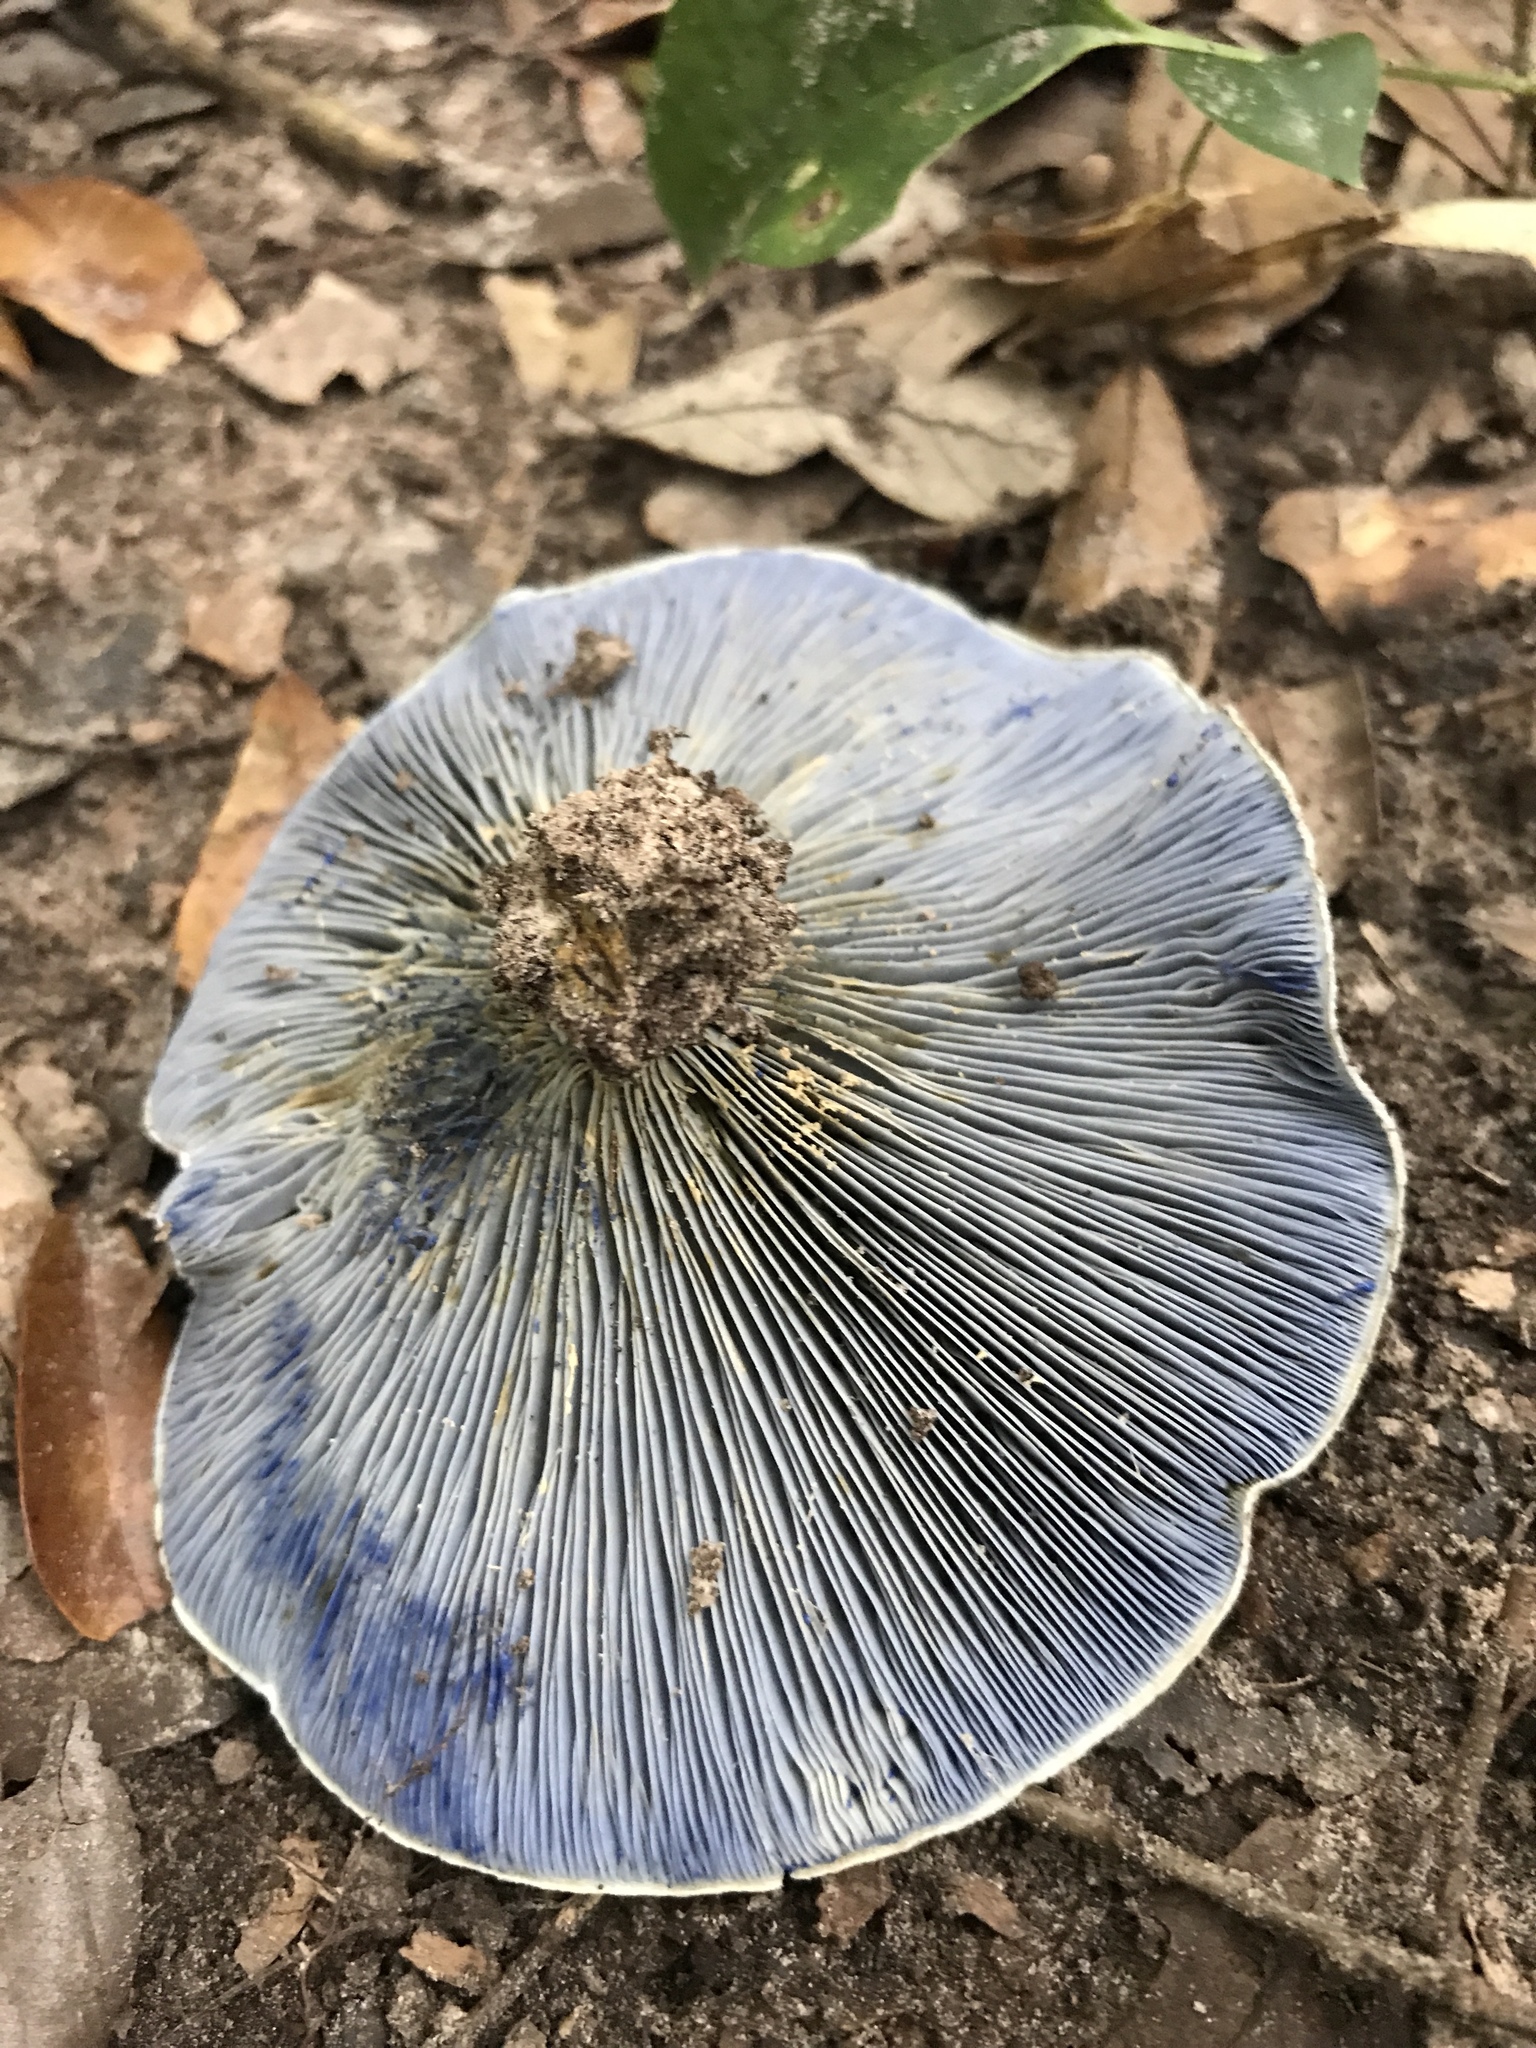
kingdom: Fungi
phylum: Basidiomycota
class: Agaricomycetes
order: Russulales
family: Russulaceae
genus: Lactarius
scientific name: Lactarius indigo
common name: Indigo milk cap
